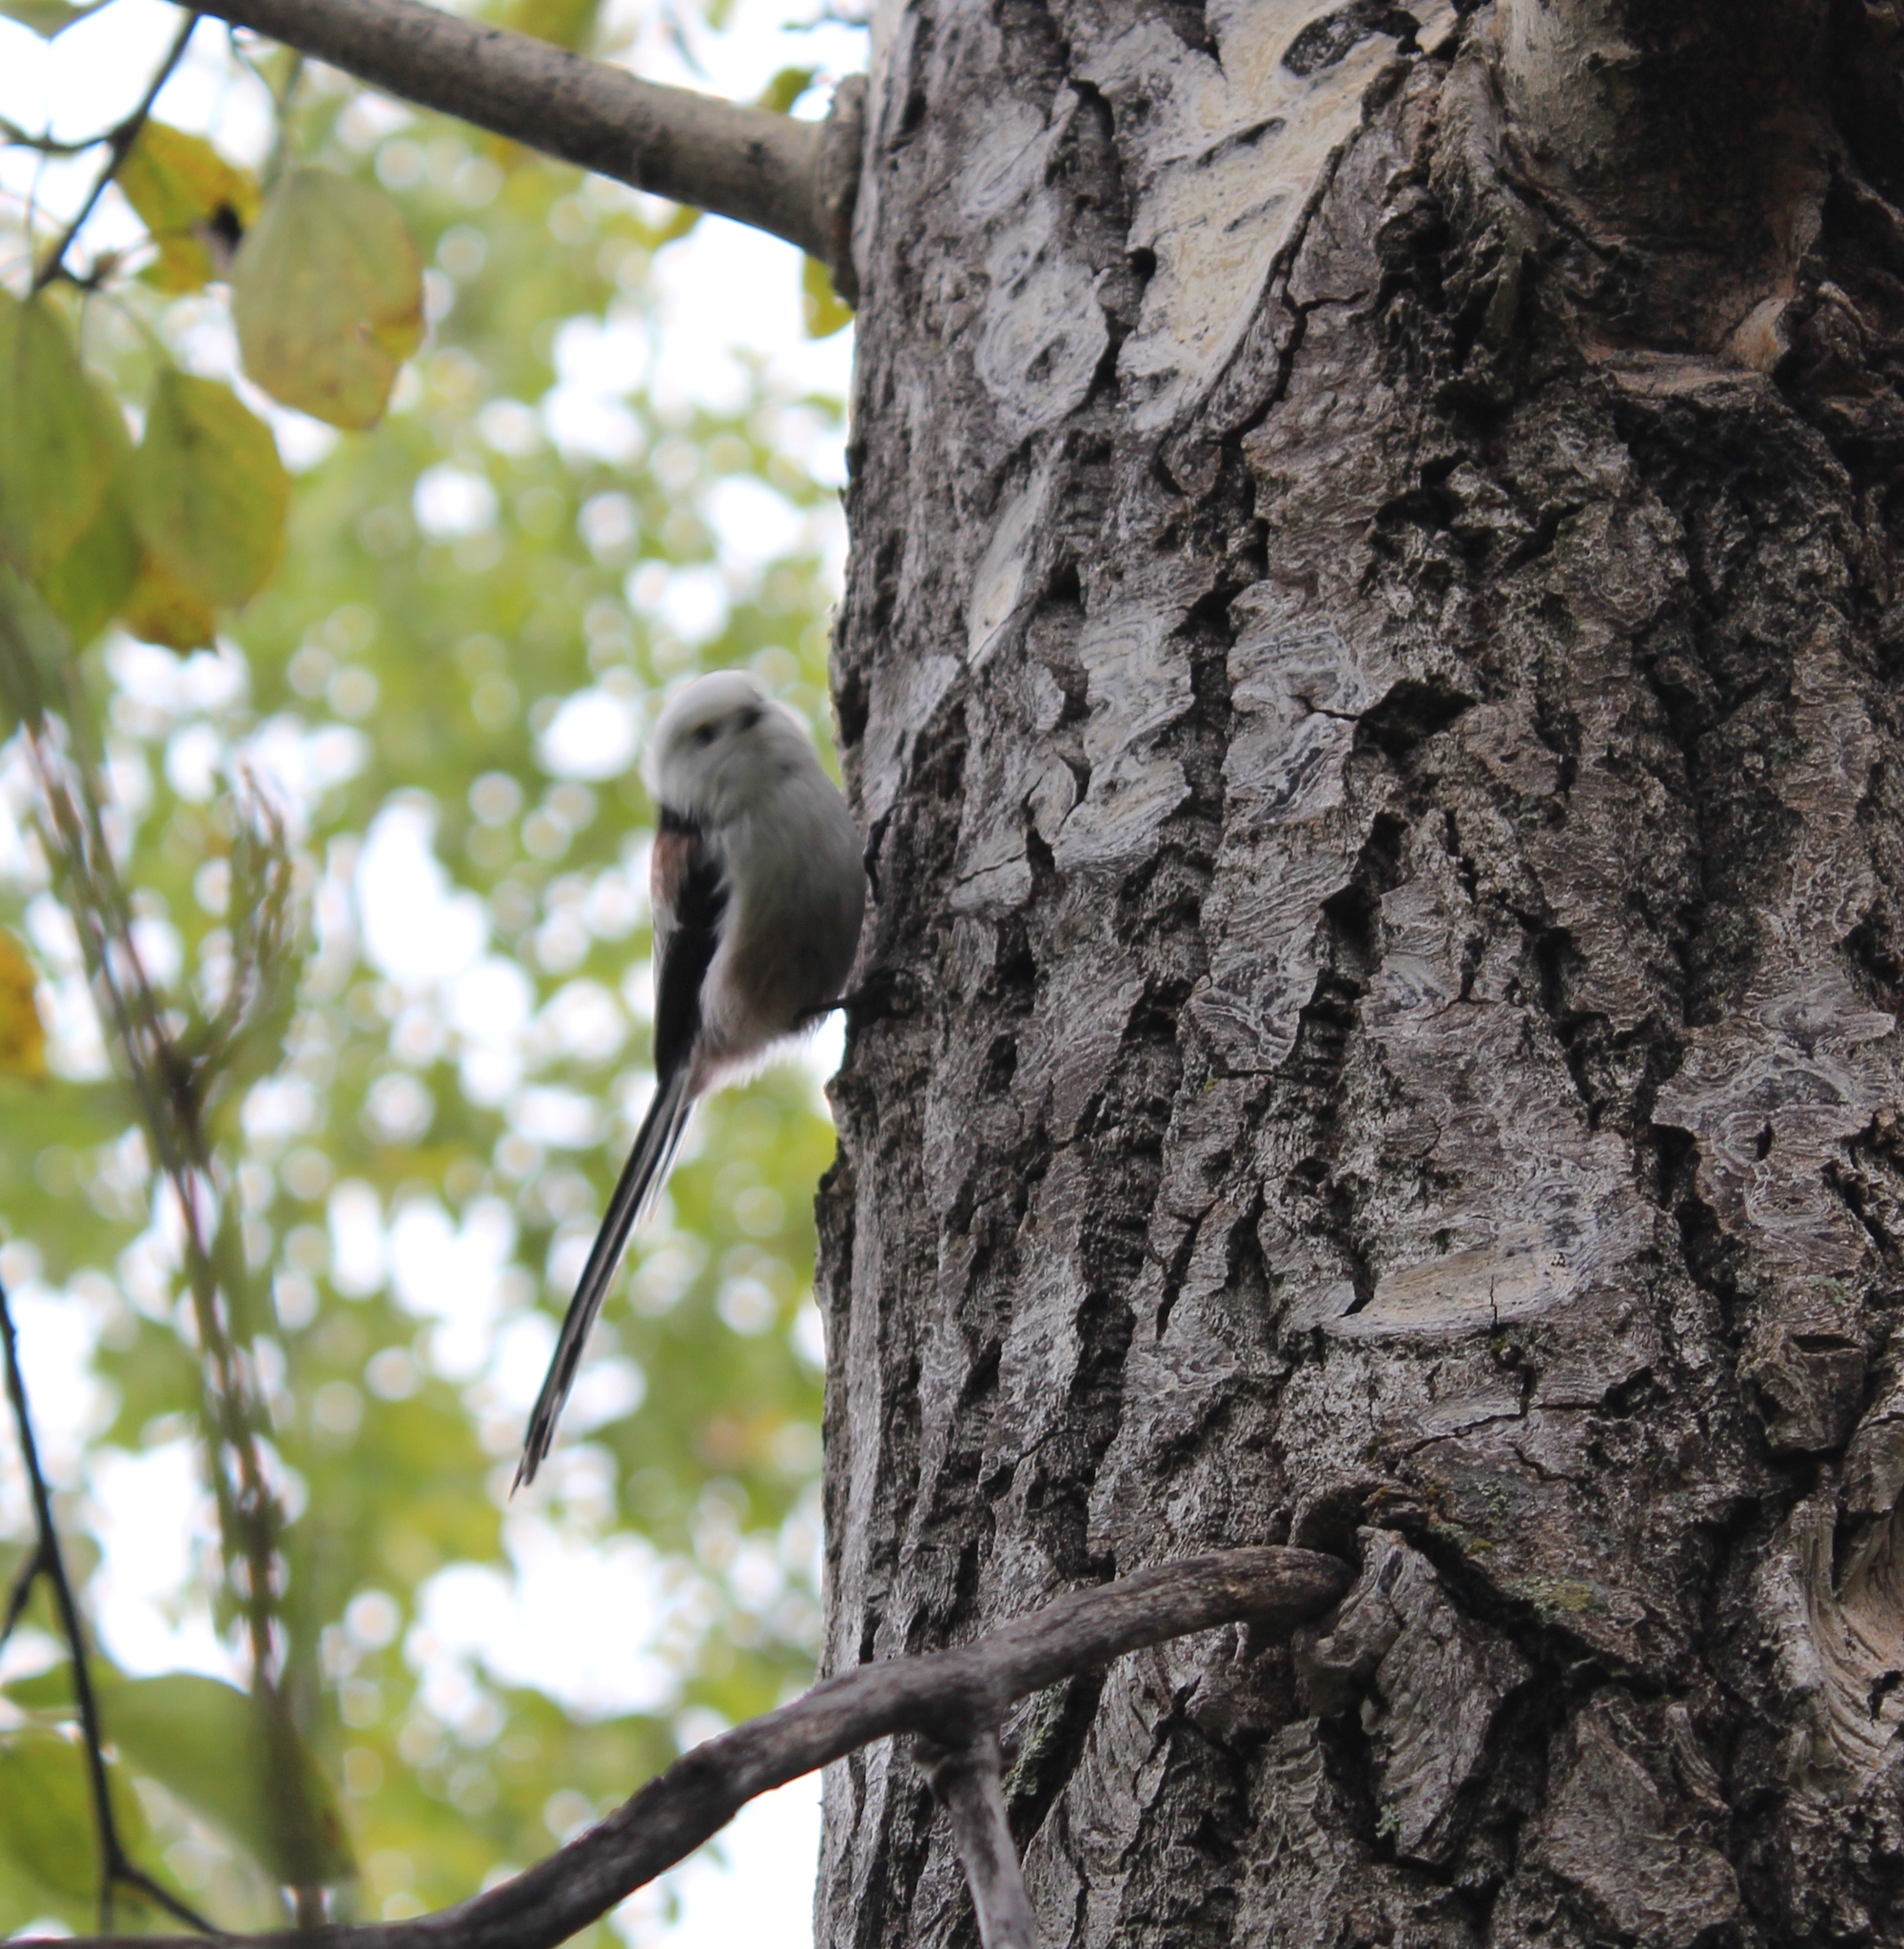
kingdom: Animalia
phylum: Chordata
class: Aves
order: Passeriformes
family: Aegithalidae
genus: Aegithalos
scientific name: Aegithalos caudatus
